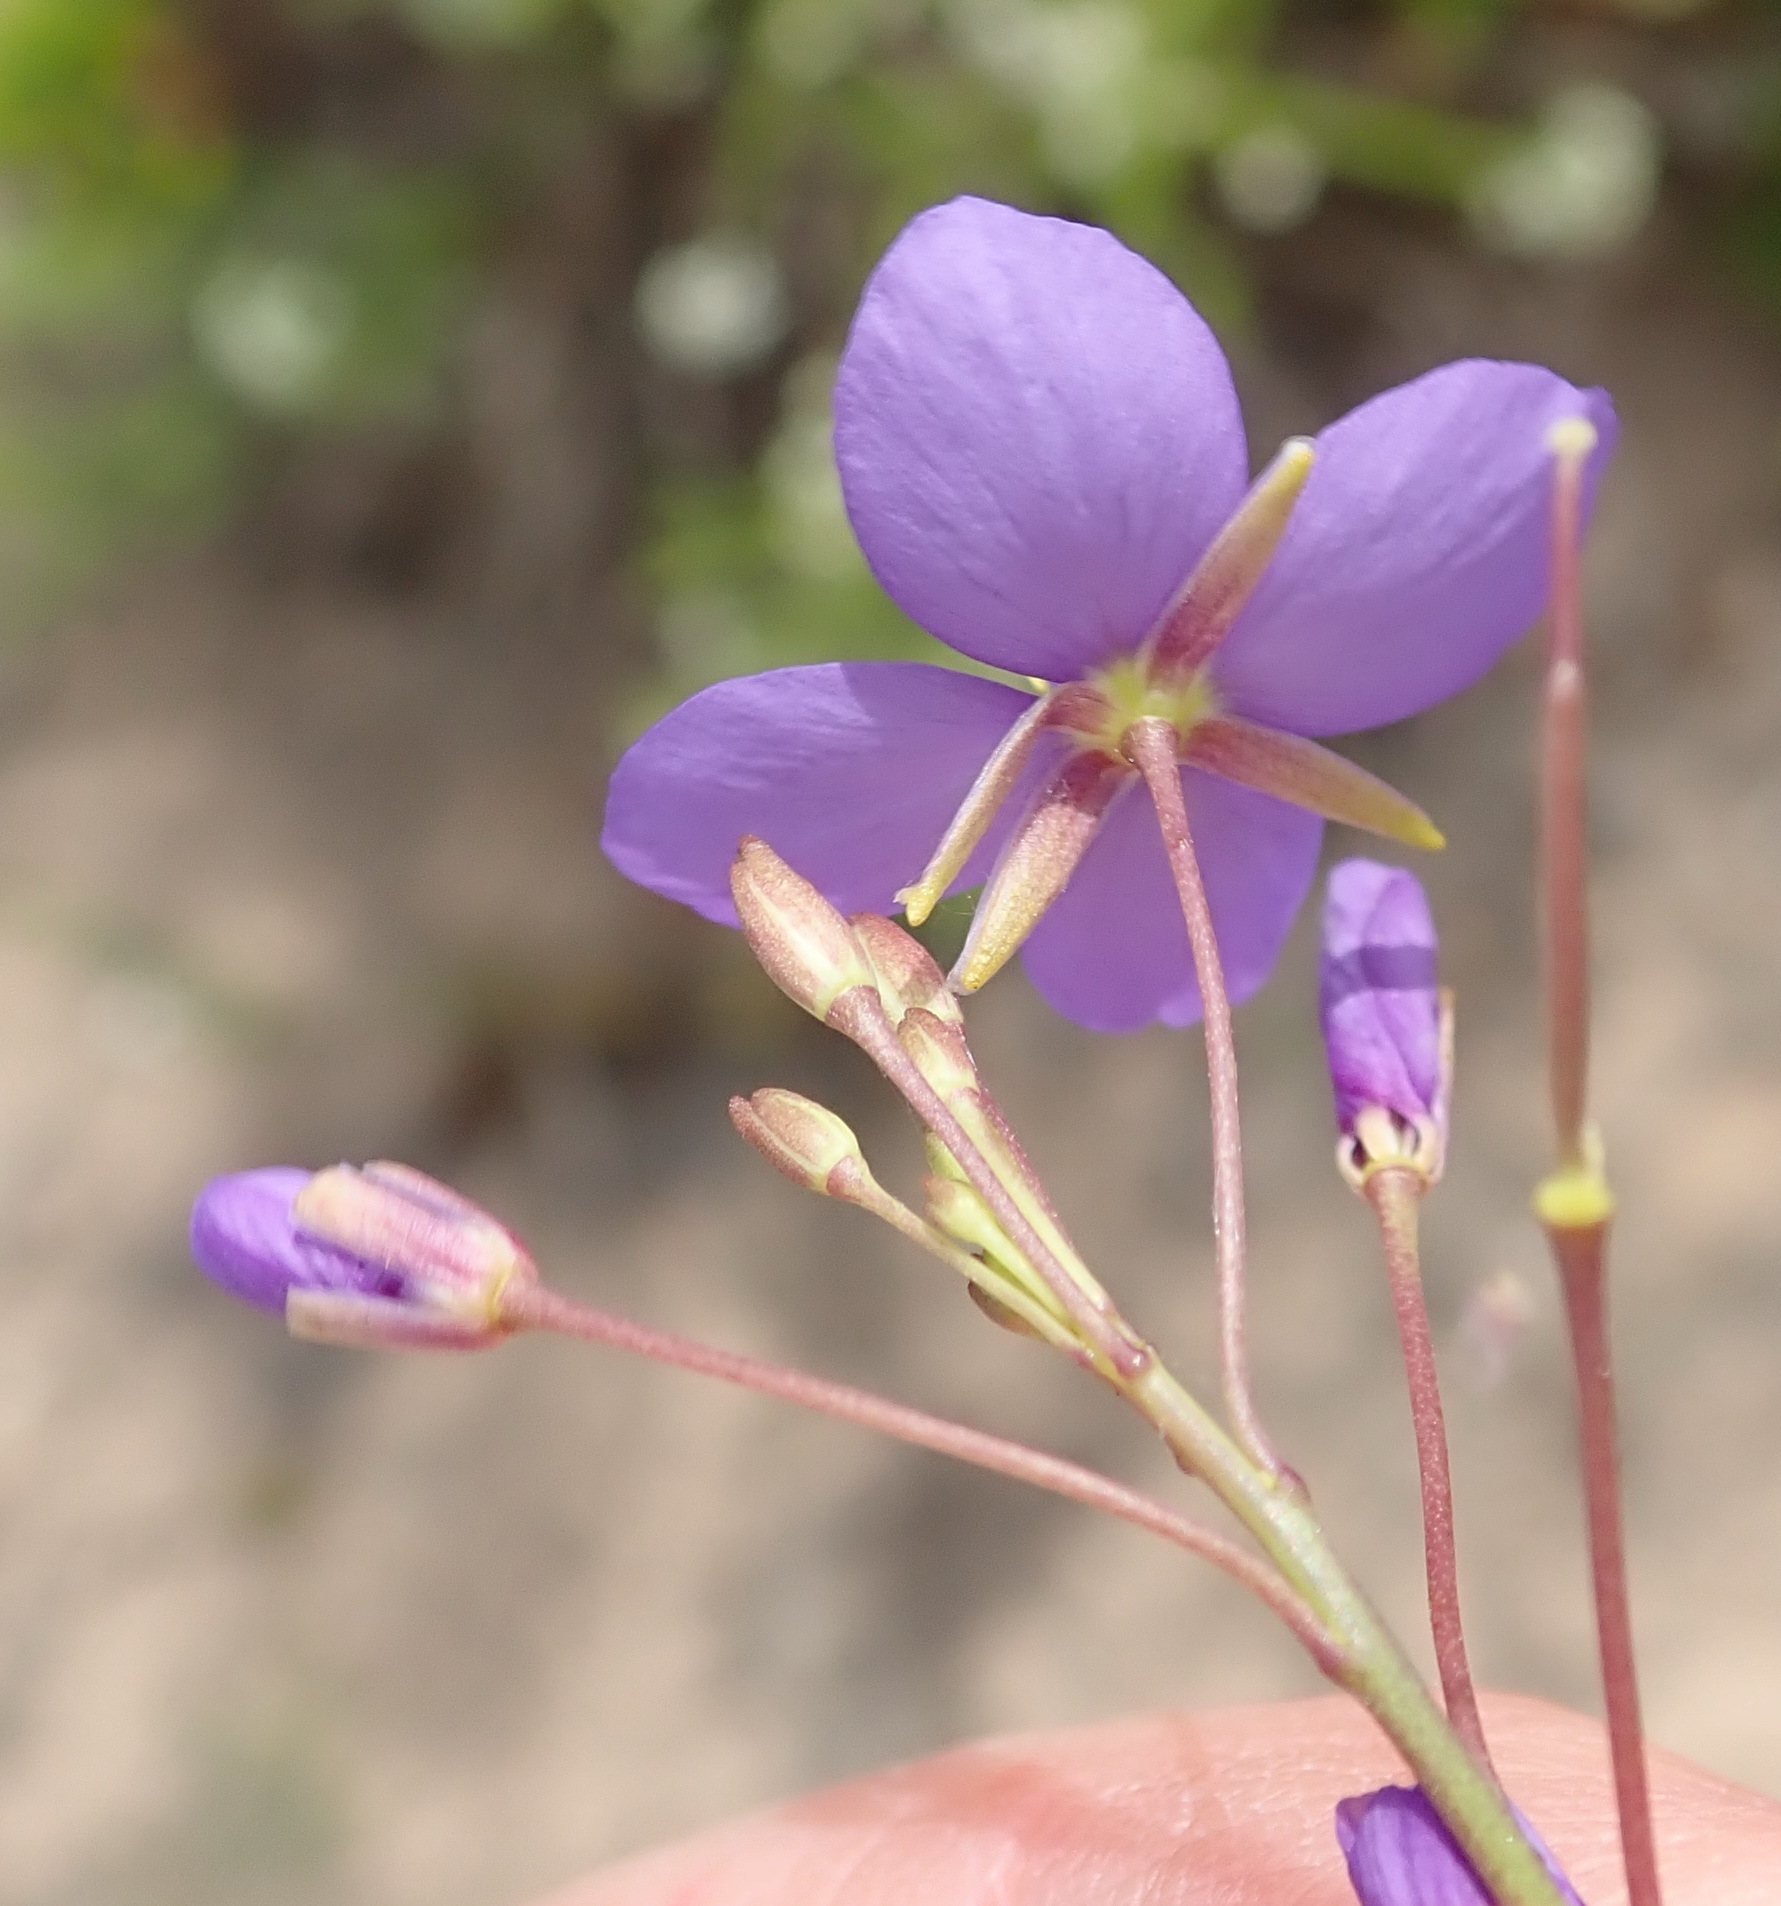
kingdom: Plantae
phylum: Tracheophyta
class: Magnoliopsida
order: Brassicales
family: Brassicaceae
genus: Heliophila
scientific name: Heliophila subulata
